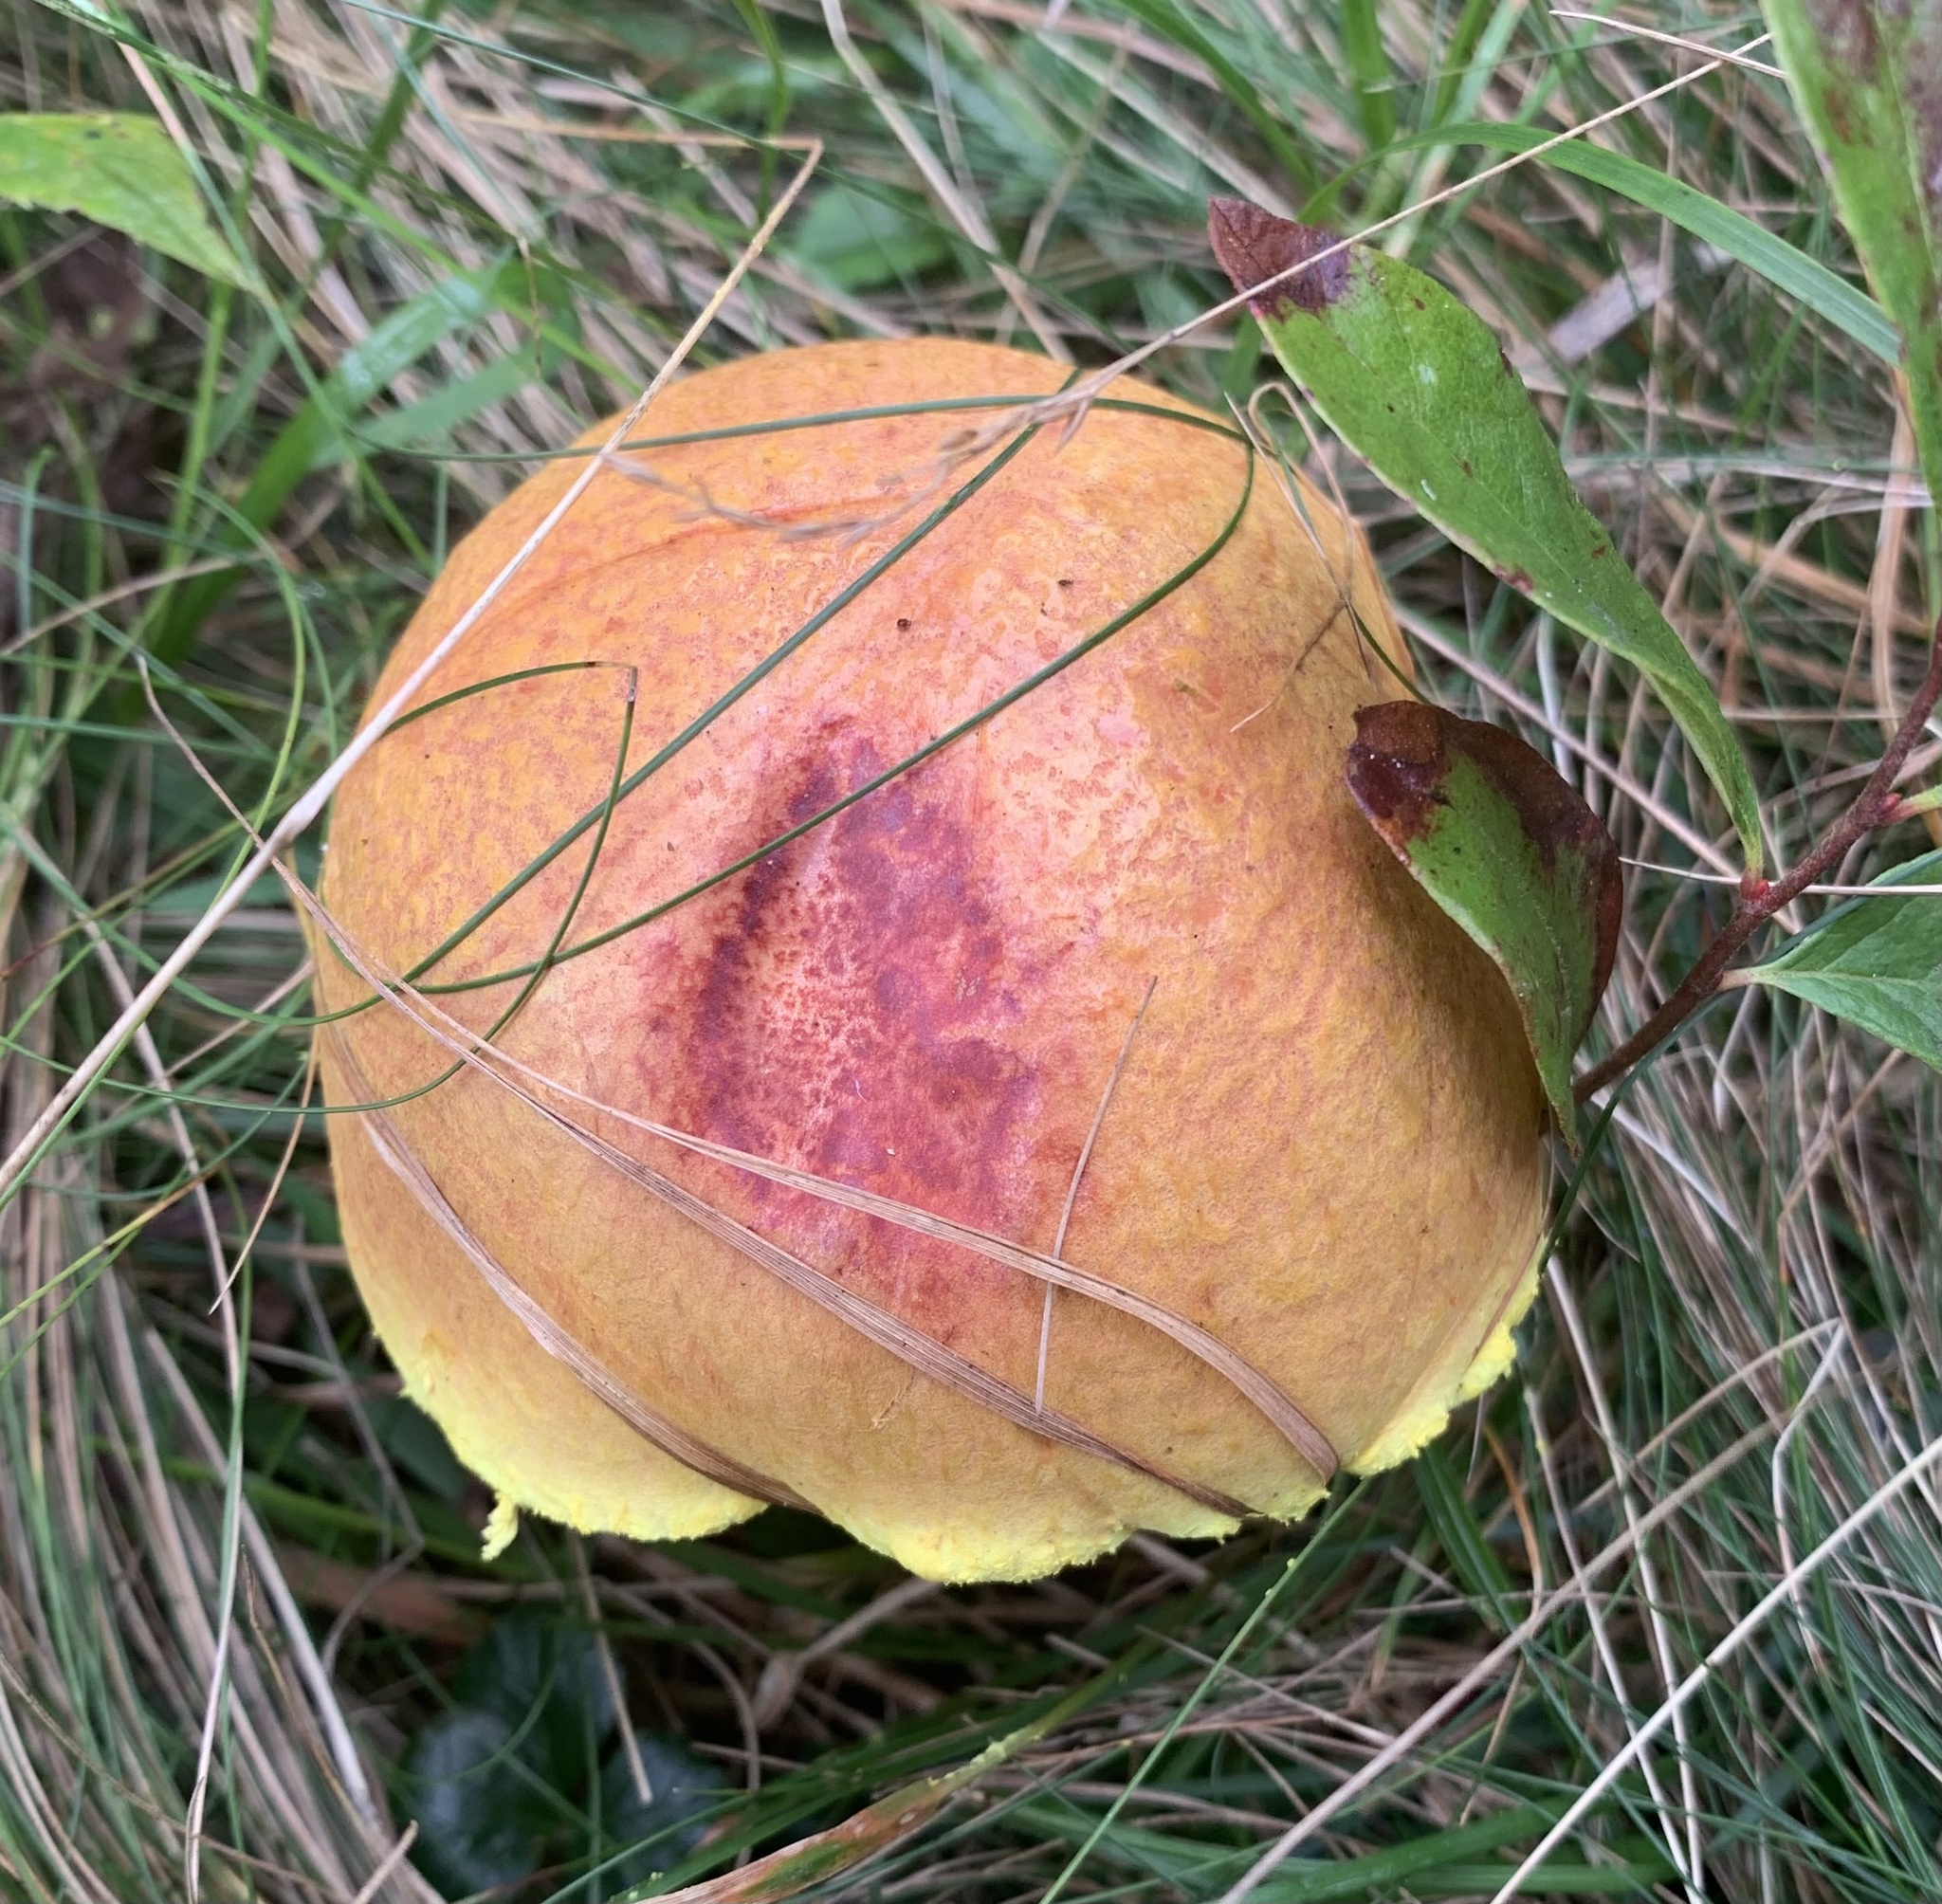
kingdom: Fungi
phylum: Basidiomycota
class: Agaricomycetes
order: Boletales
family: Boletaceae
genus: Pulveroboletus
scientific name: Pulveroboletus ravenelii
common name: Powdery sulfur bolete
